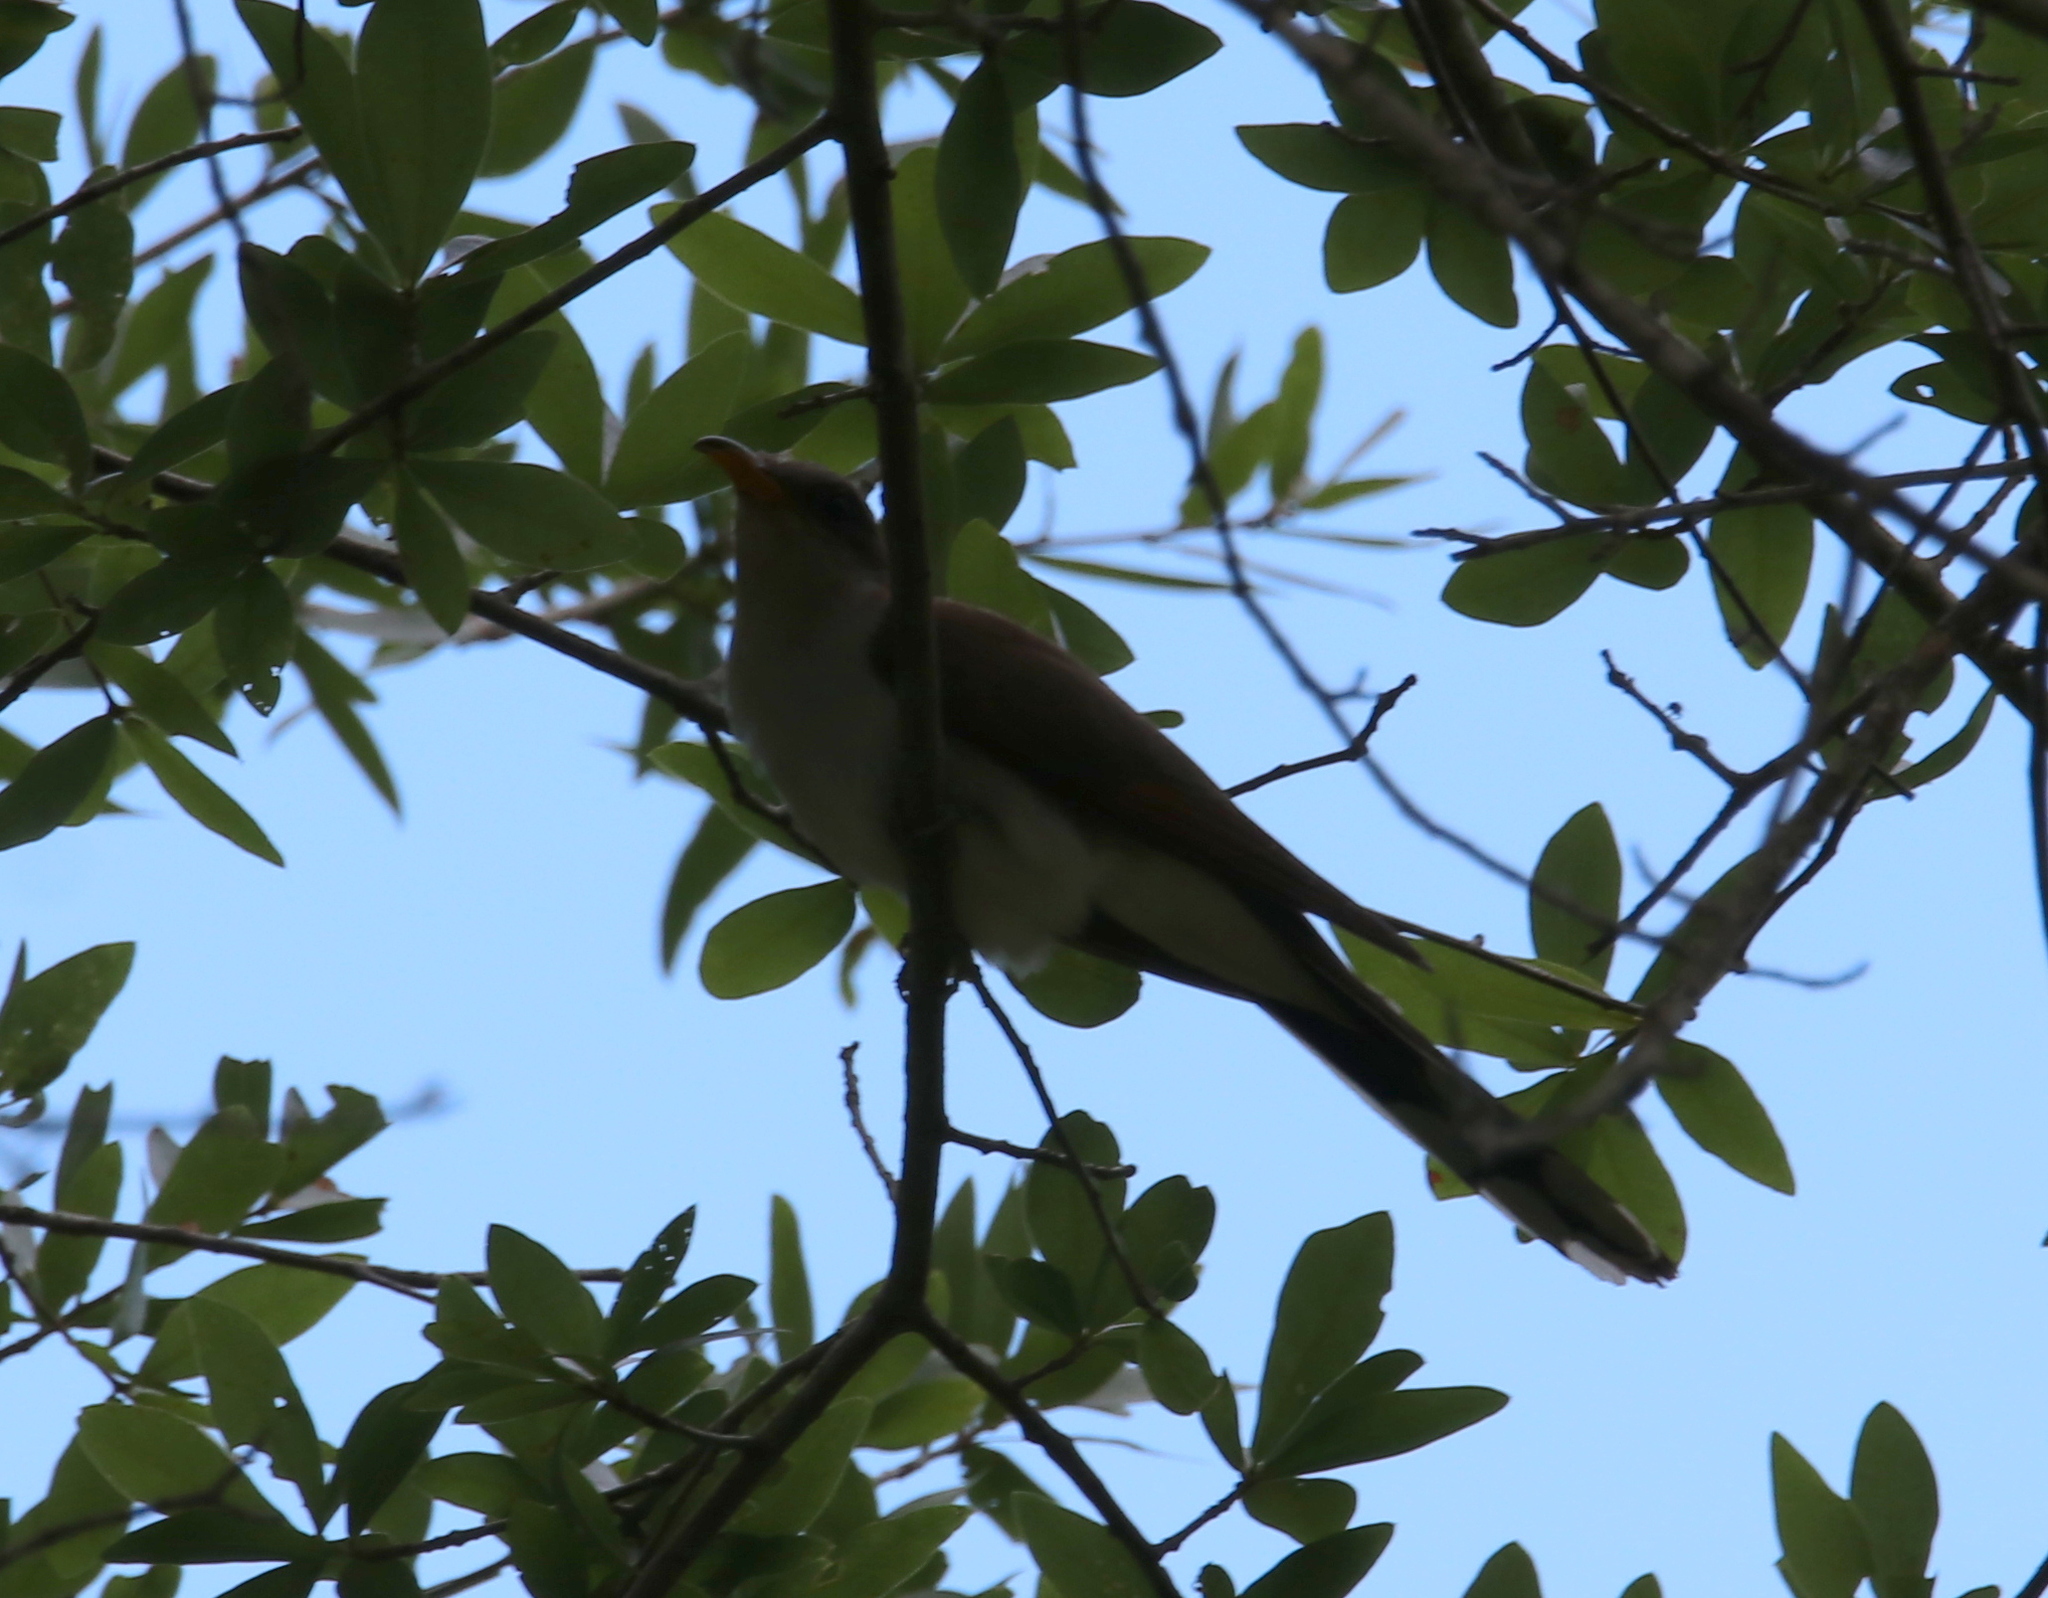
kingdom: Animalia
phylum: Chordata
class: Aves
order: Cuculiformes
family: Cuculidae
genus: Coccyzus
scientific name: Coccyzus americanus
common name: Yellow-billed cuckoo
